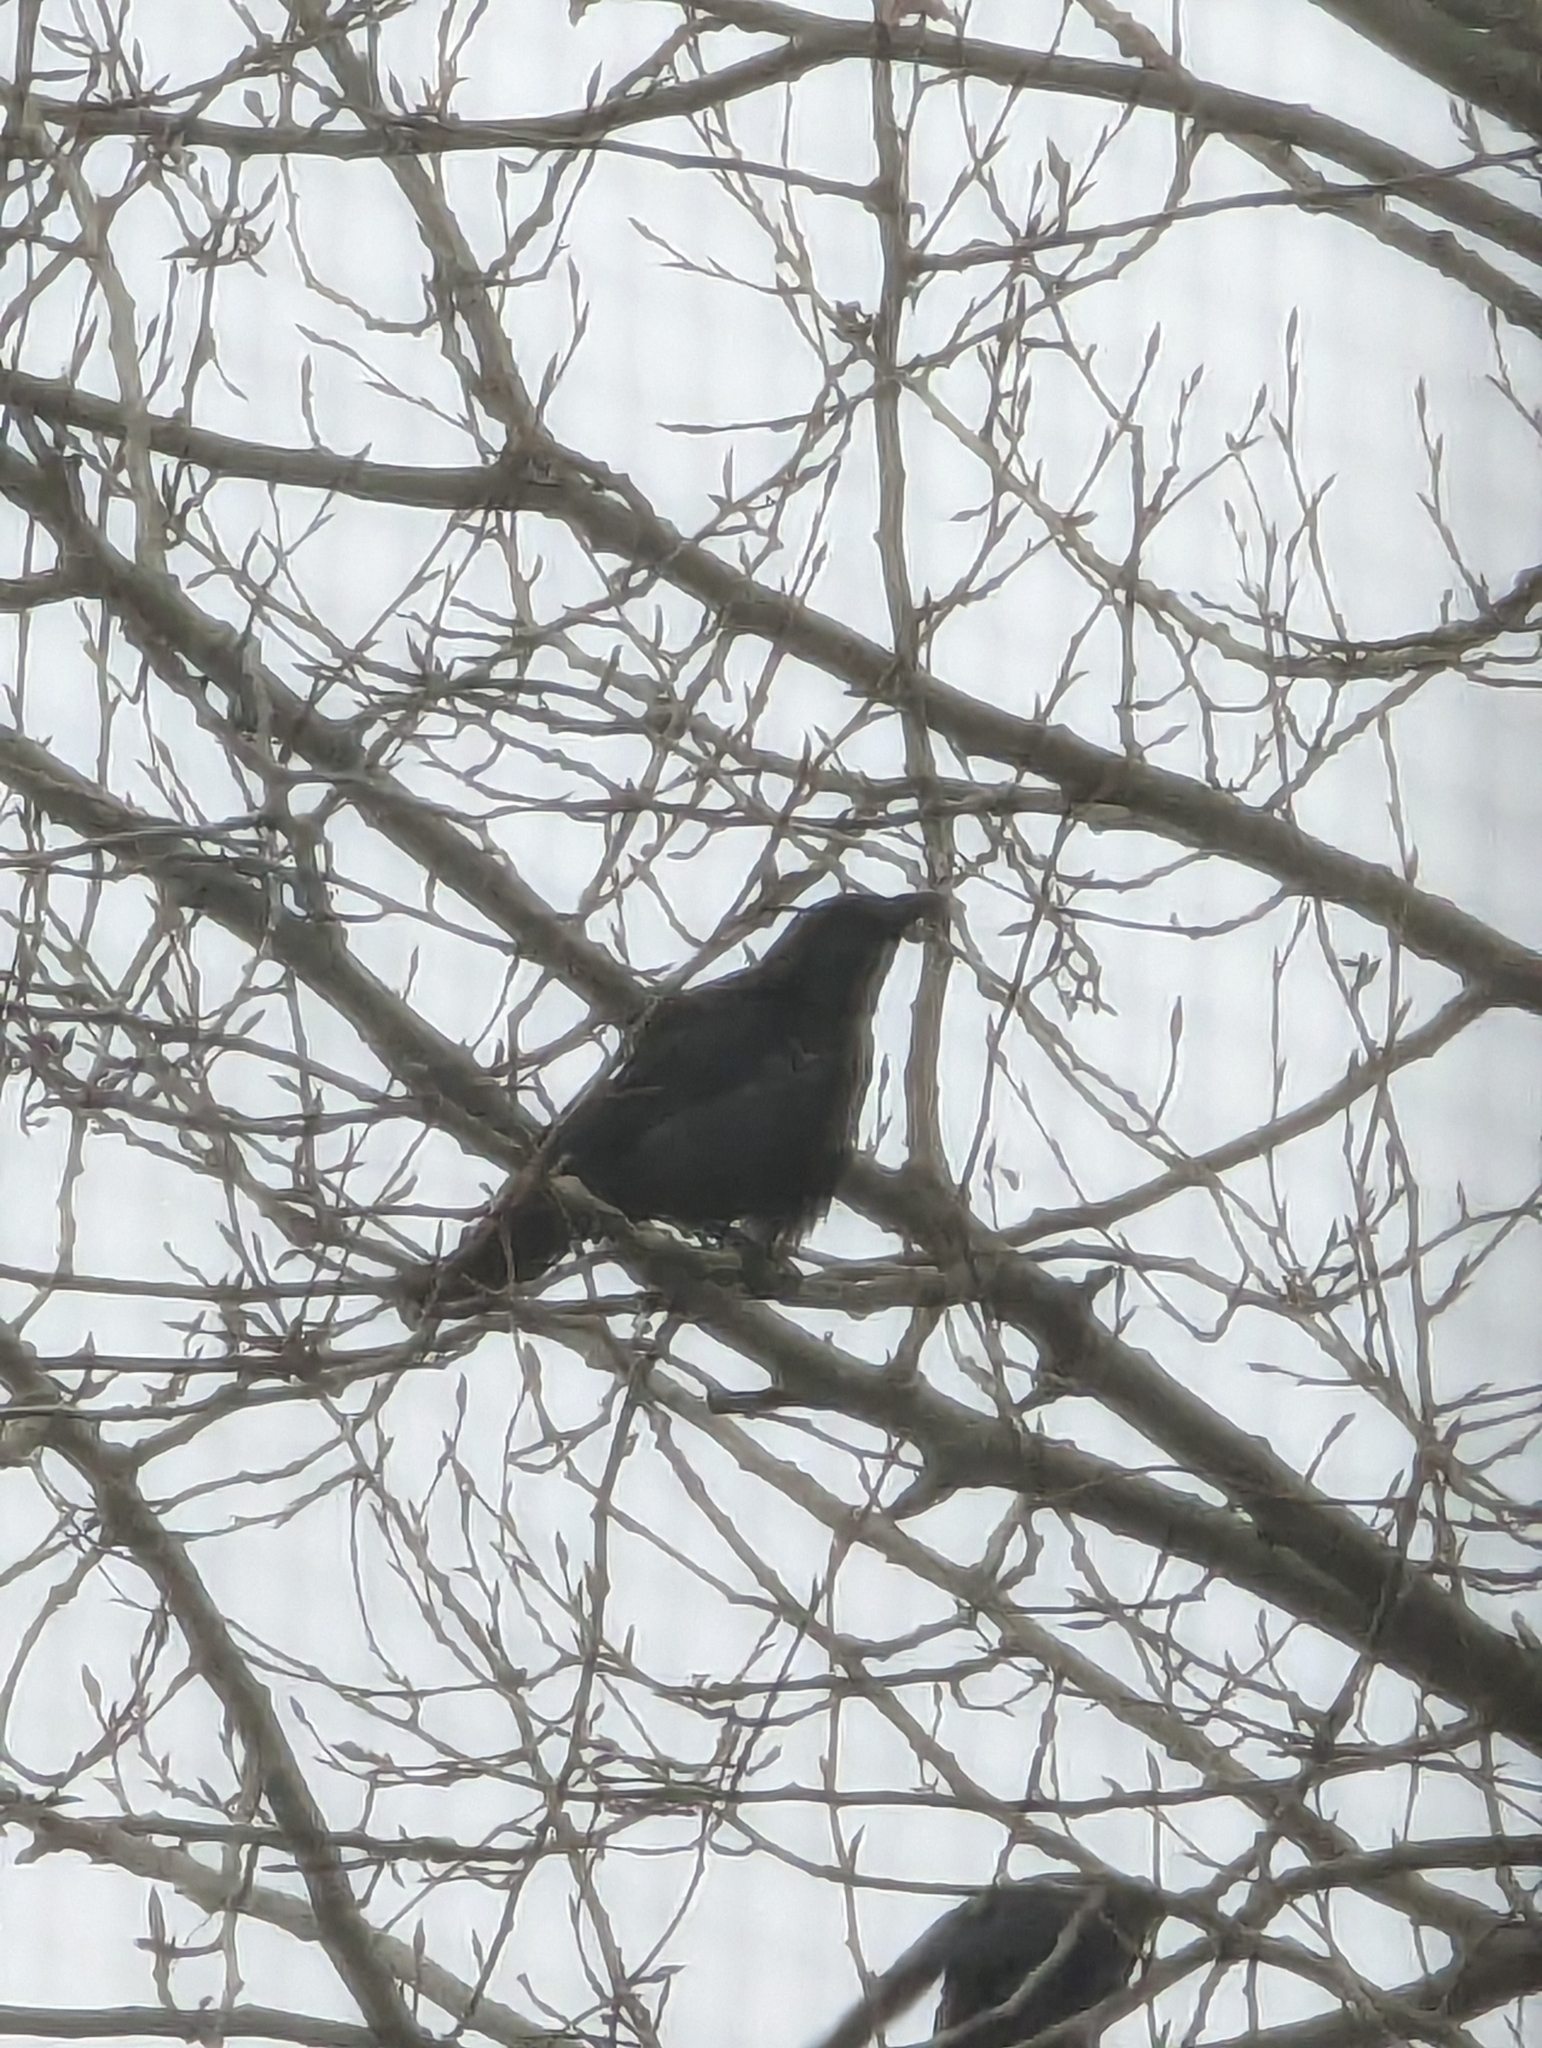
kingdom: Animalia
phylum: Chordata
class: Aves
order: Passeriformes
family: Corvidae
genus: Corvus
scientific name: Corvus brachyrhynchos
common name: American crow
